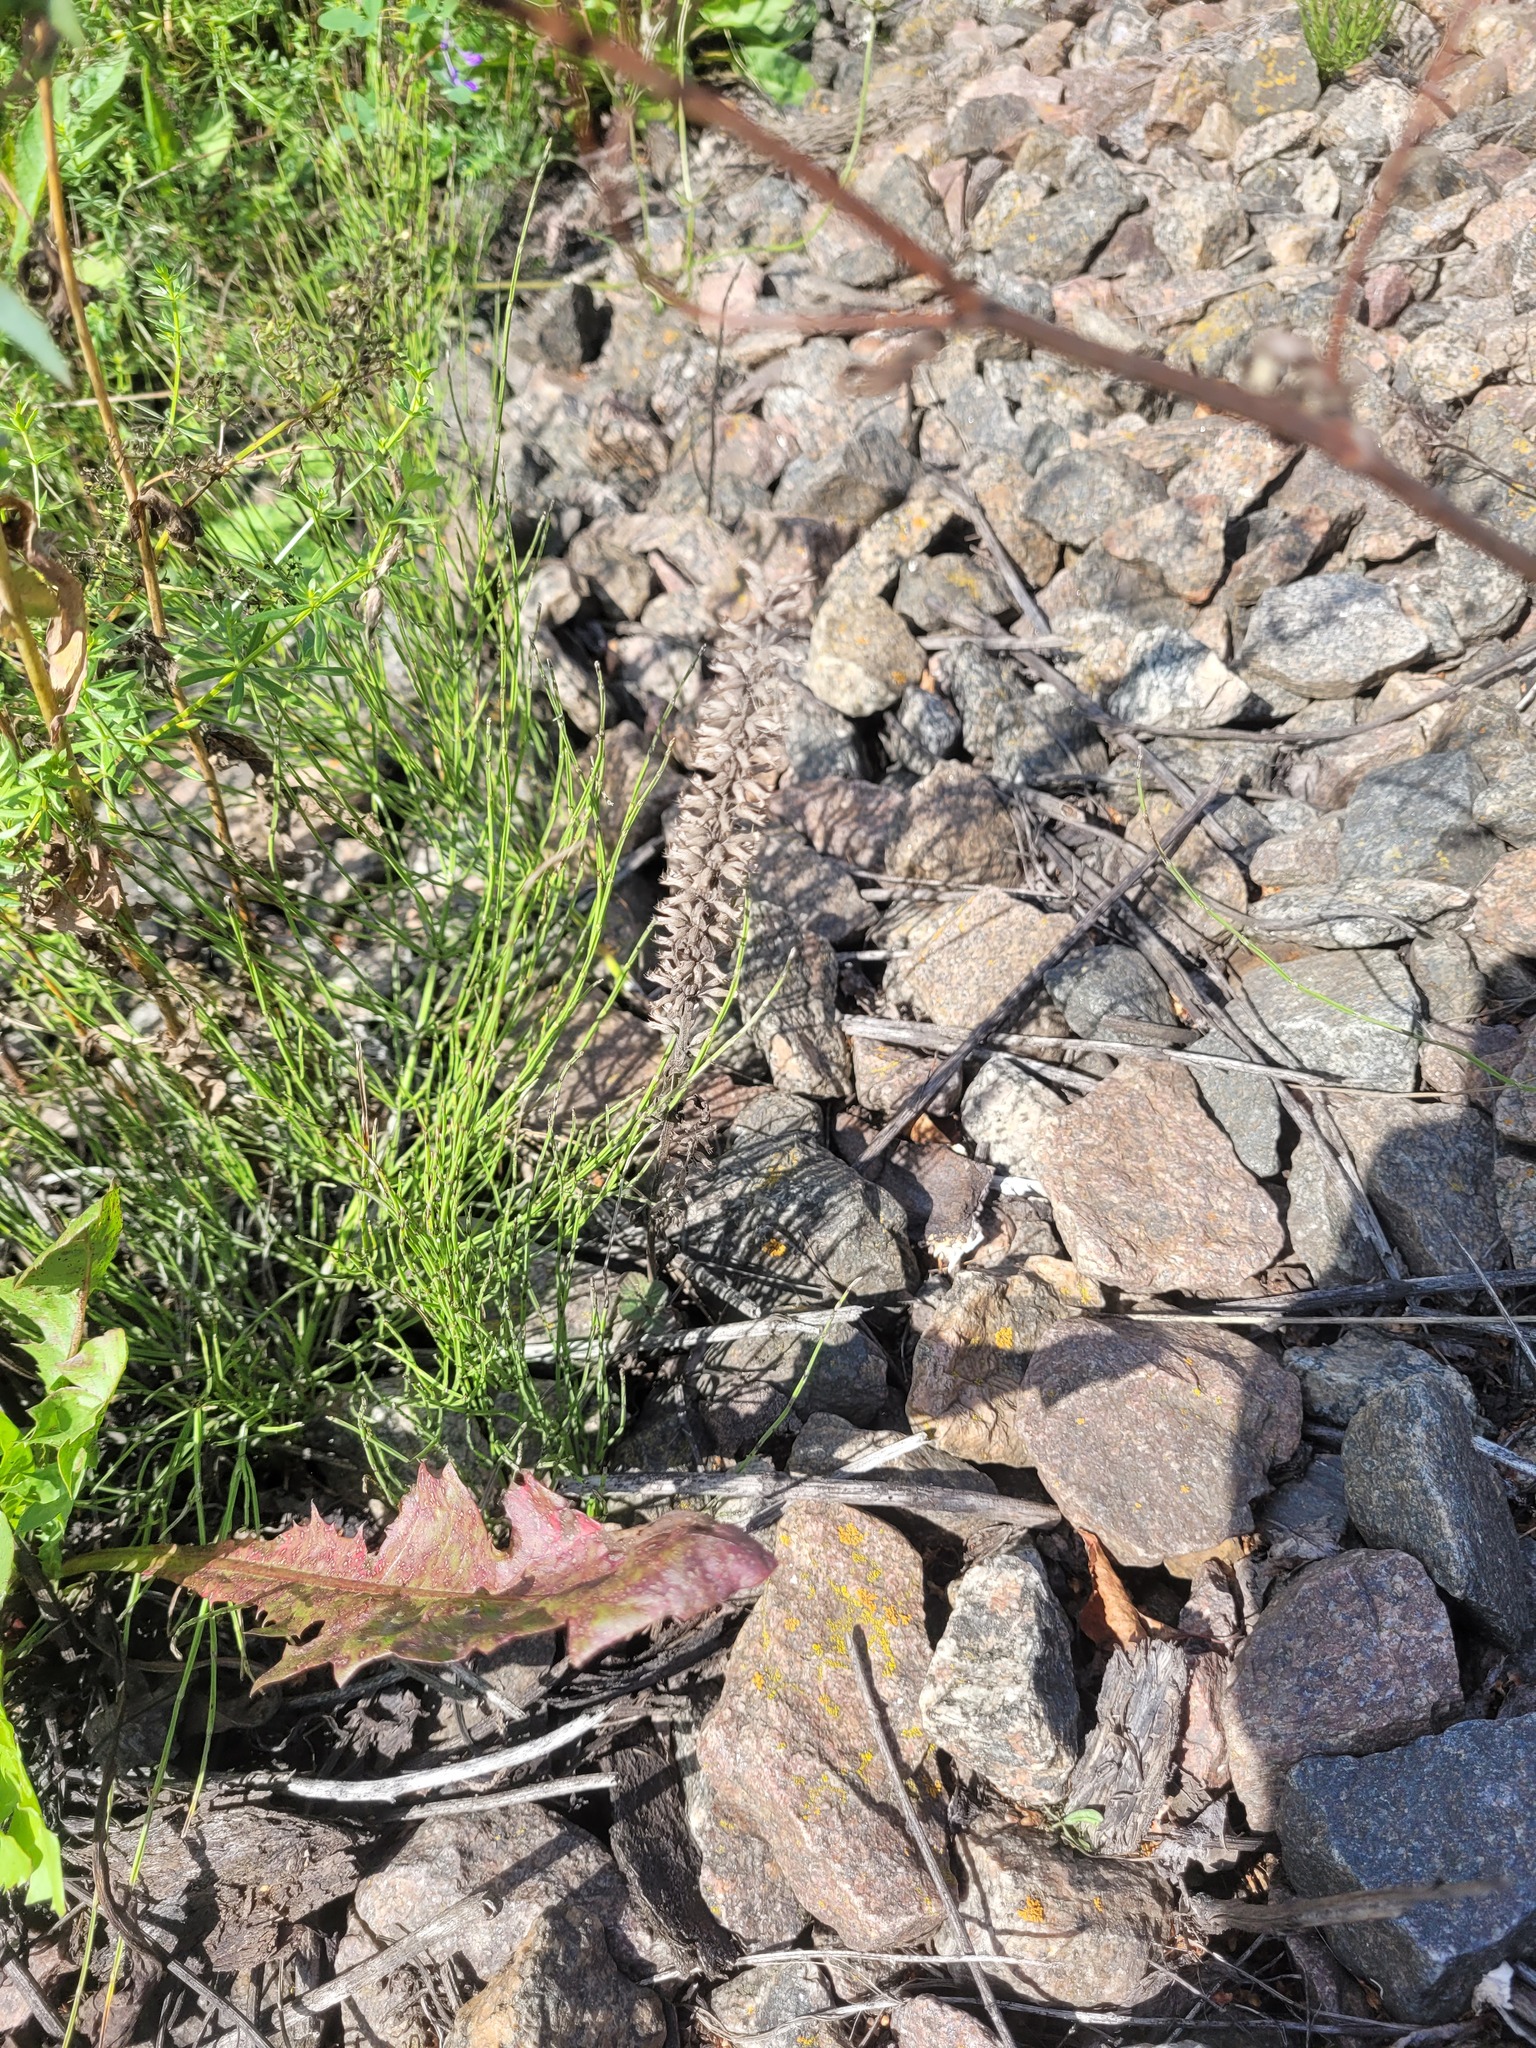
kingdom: Plantae
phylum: Tracheophyta
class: Magnoliopsida
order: Lamiales
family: Lamiaceae
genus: Dracocephalum
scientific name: Dracocephalum thymiflorum
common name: Thymeleaf dragonhead
